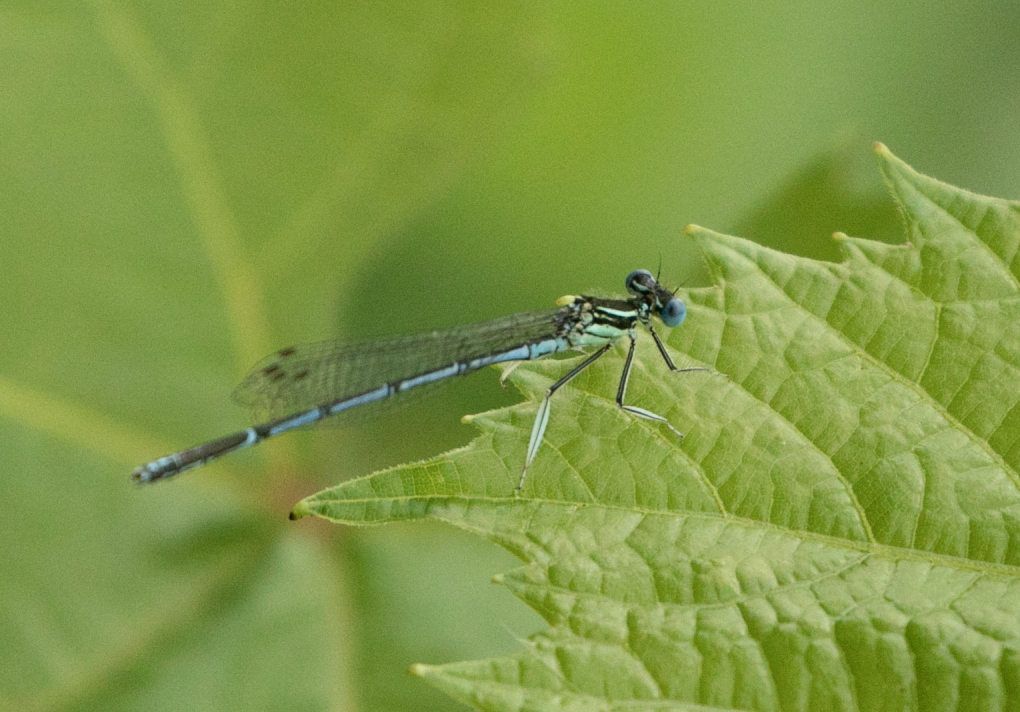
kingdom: Animalia
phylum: Arthropoda
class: Insecta
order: Odonata
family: Platycnemididae
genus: Platycnemis
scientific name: Platycnemis pennipes
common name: White-legged damselfly
